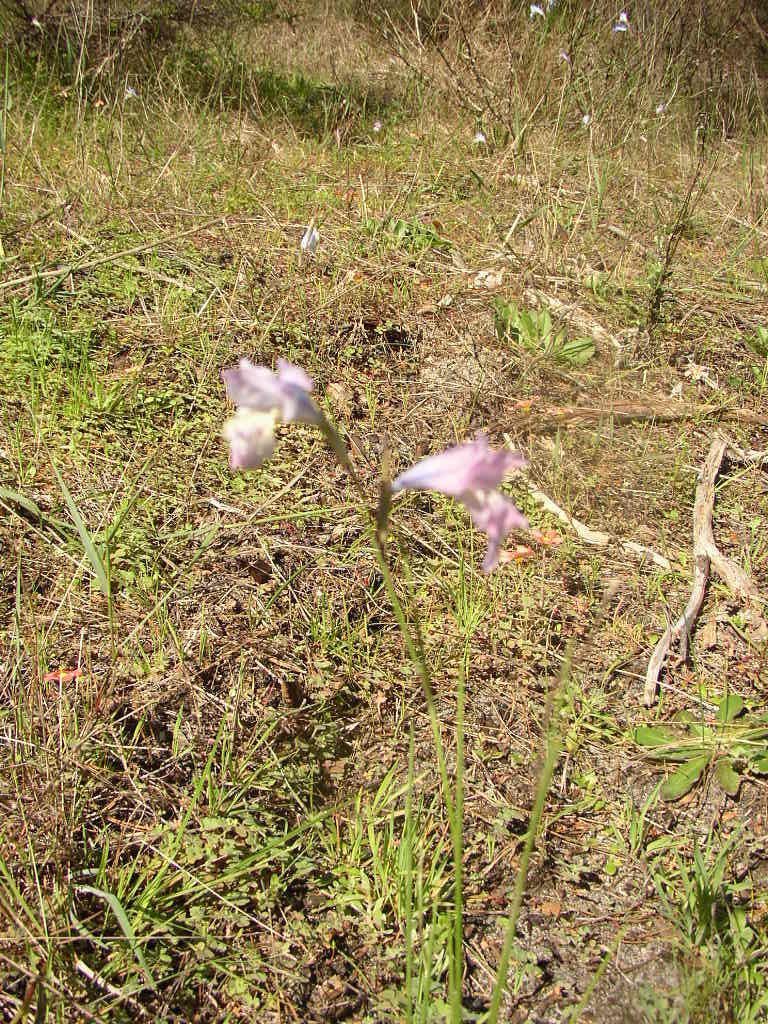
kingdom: Plantae
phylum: Tracheophyta
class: Liliopsida
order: Asparagales
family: Iridaceae
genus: Gladiolus
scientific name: Gladiolus gracilis
